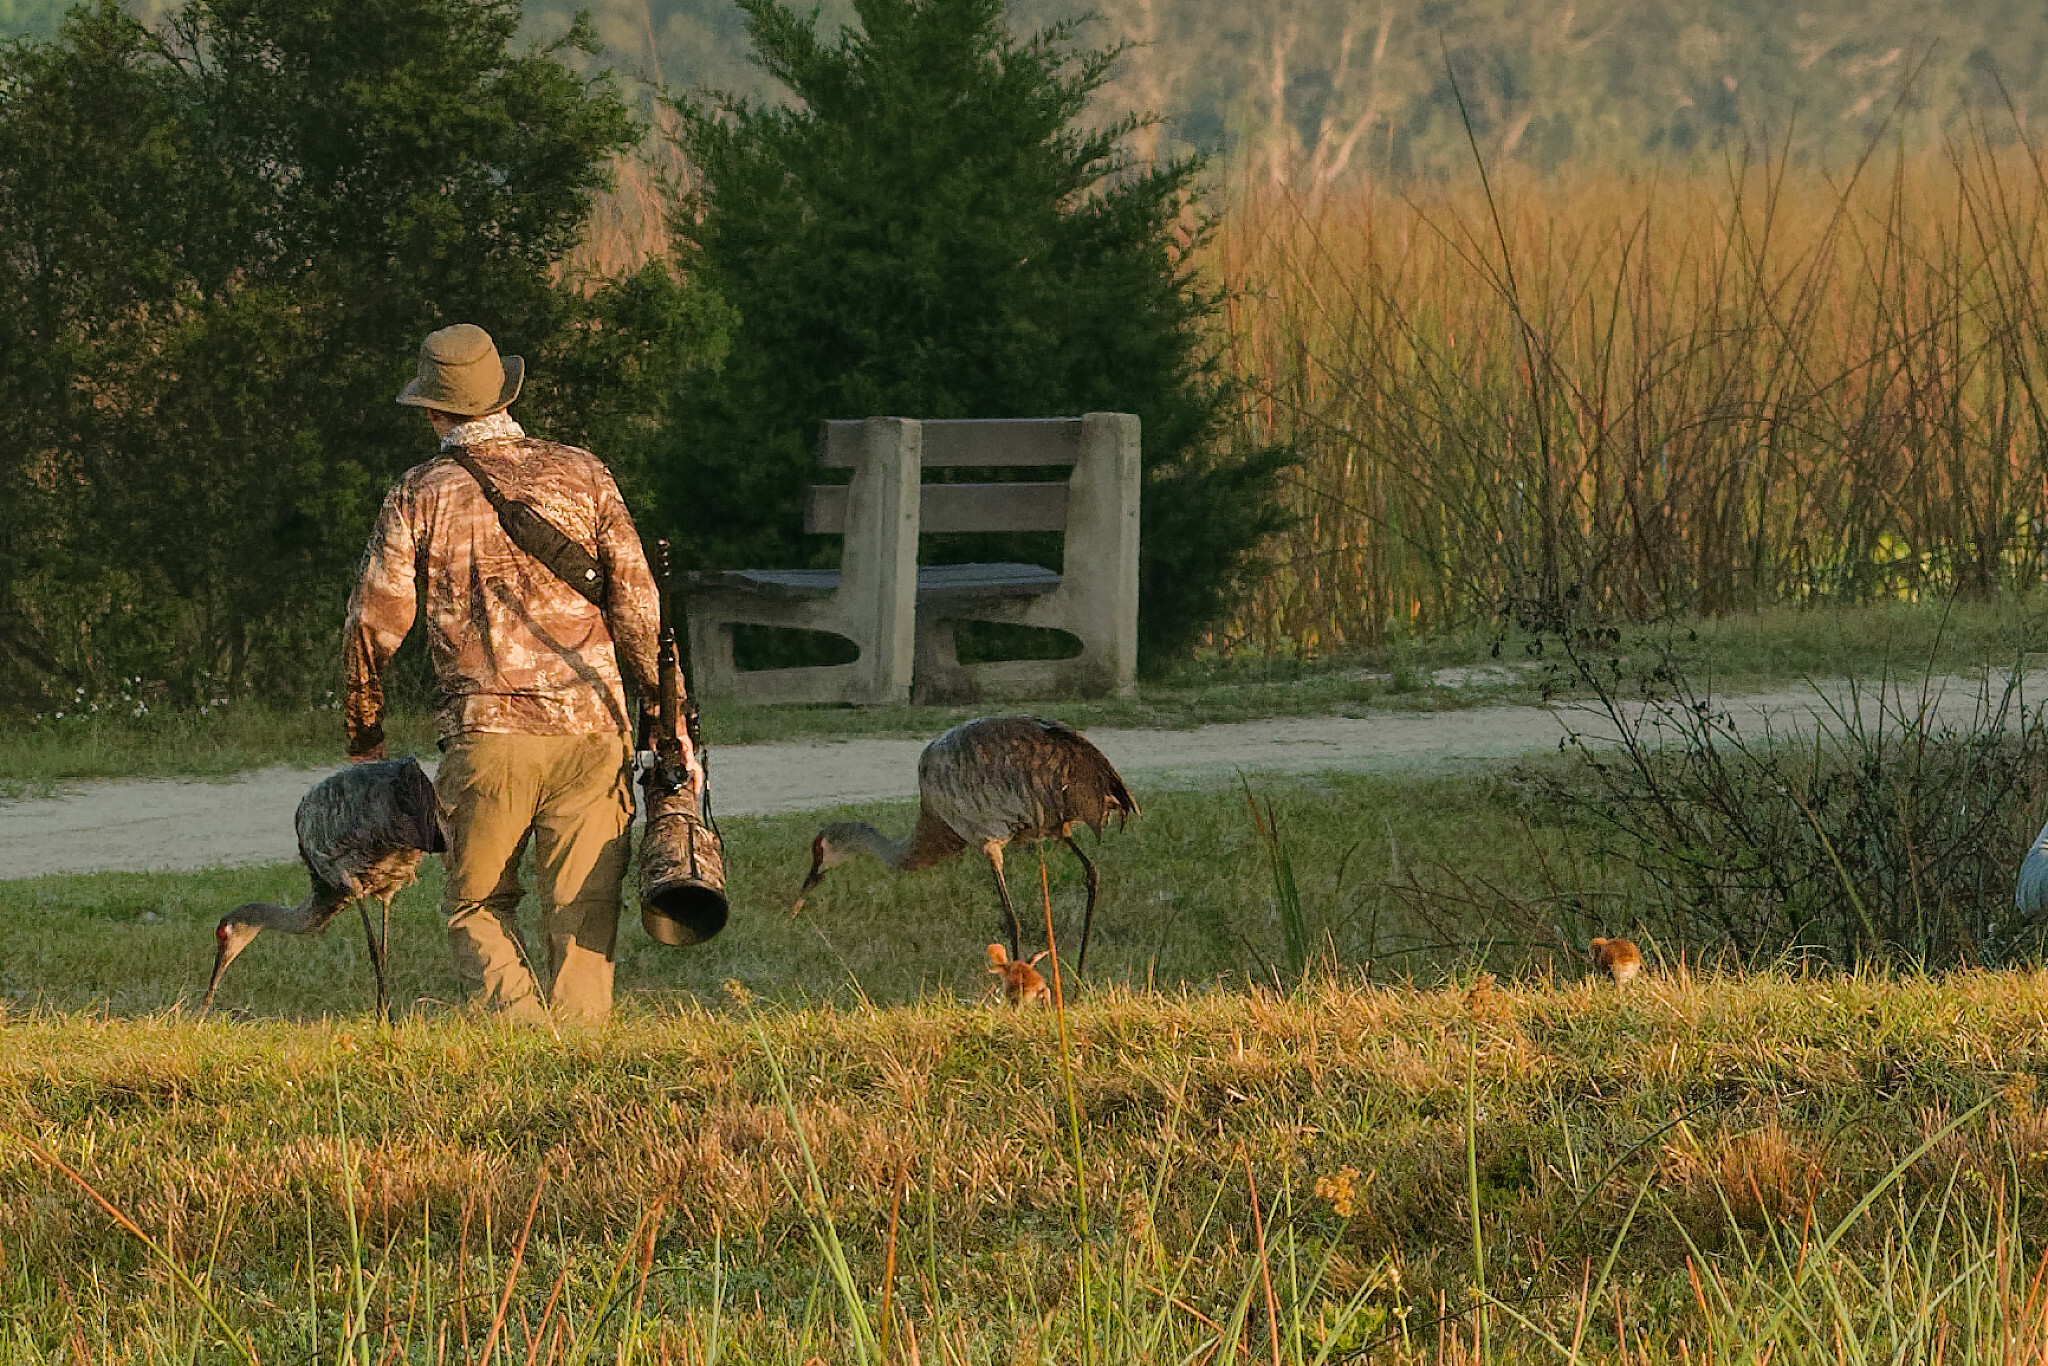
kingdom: Animalia
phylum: Chordata
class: Aves
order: Gruiformes
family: Gruidae
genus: Grus
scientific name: Grus canadensis
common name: Sandhill crane
